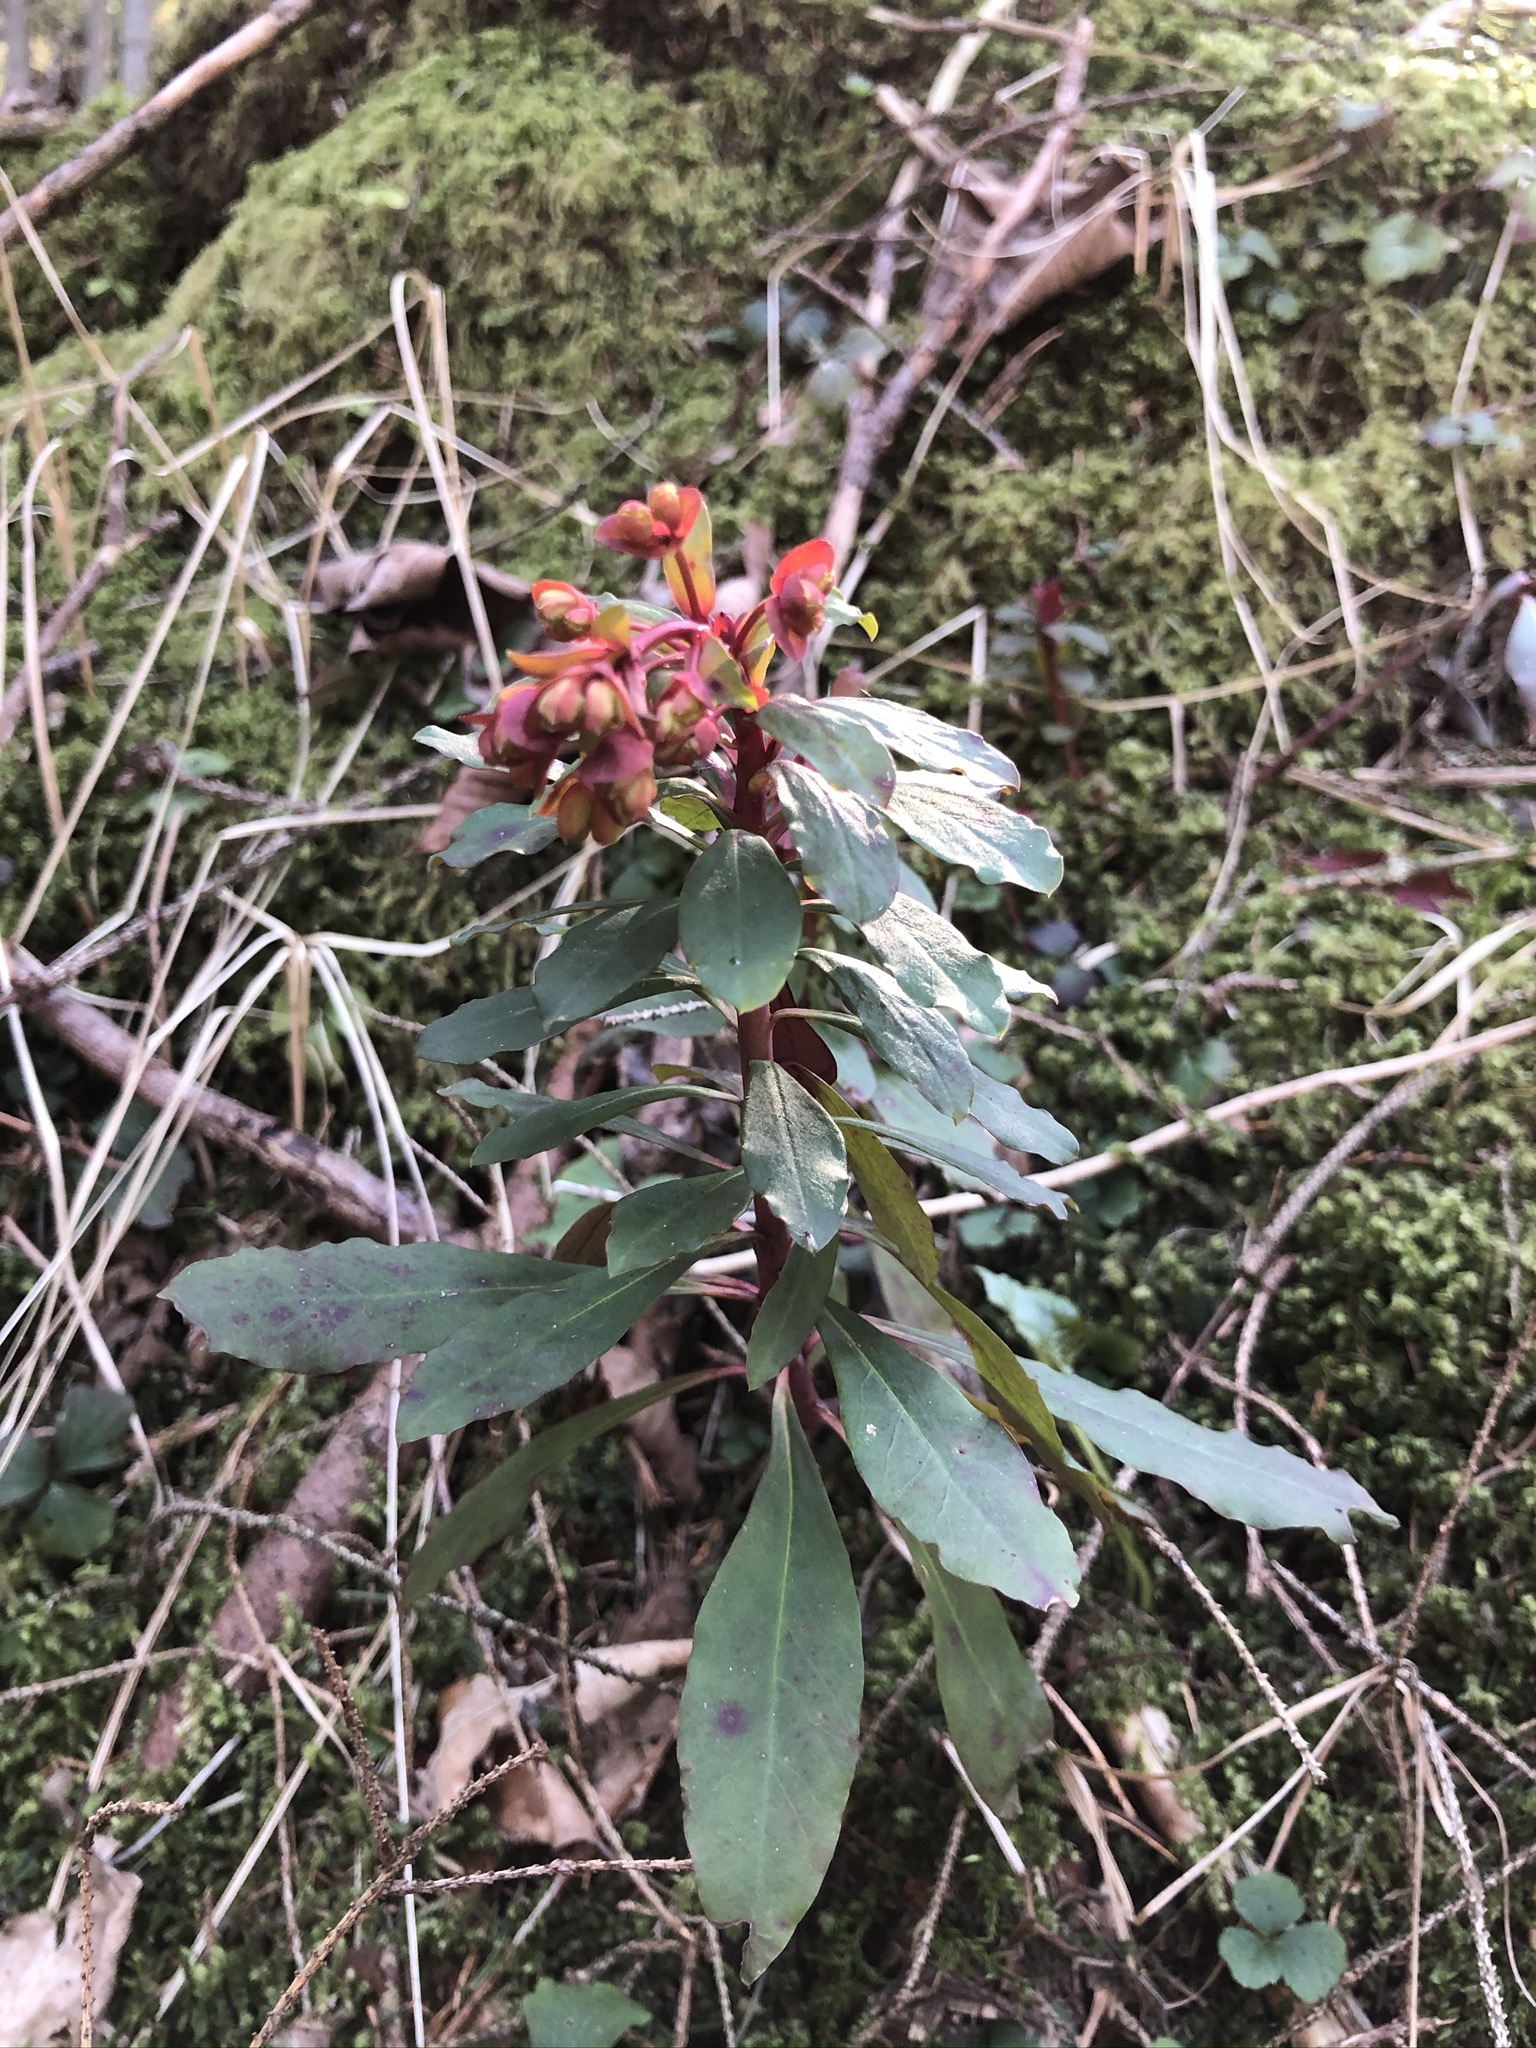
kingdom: Plantae
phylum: Tracheophyta
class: Magnoliopsida
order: Malpighiales
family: Euphorbiaceae
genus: Euphorbia
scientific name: Euphorbia amygdaloides
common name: Wood spurge
